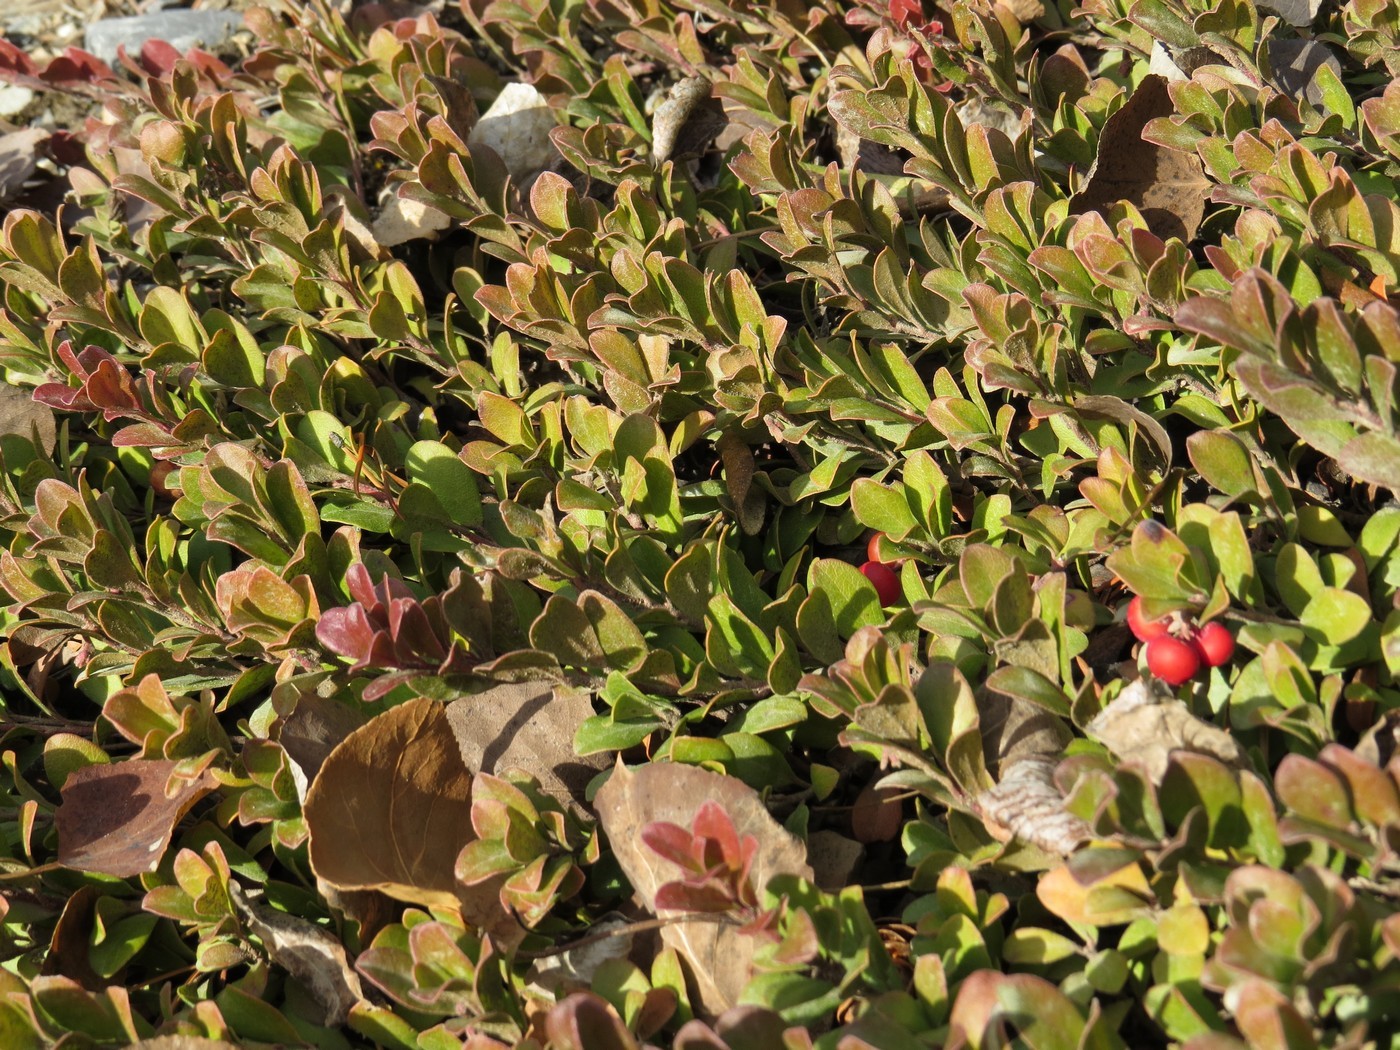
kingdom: Plantae
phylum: Tracheophyta
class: Magnoliopsida
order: Ericales
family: Ericaceae
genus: Arctostaphylos
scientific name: Arctostaphylos uva-ursi
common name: Bearberry
